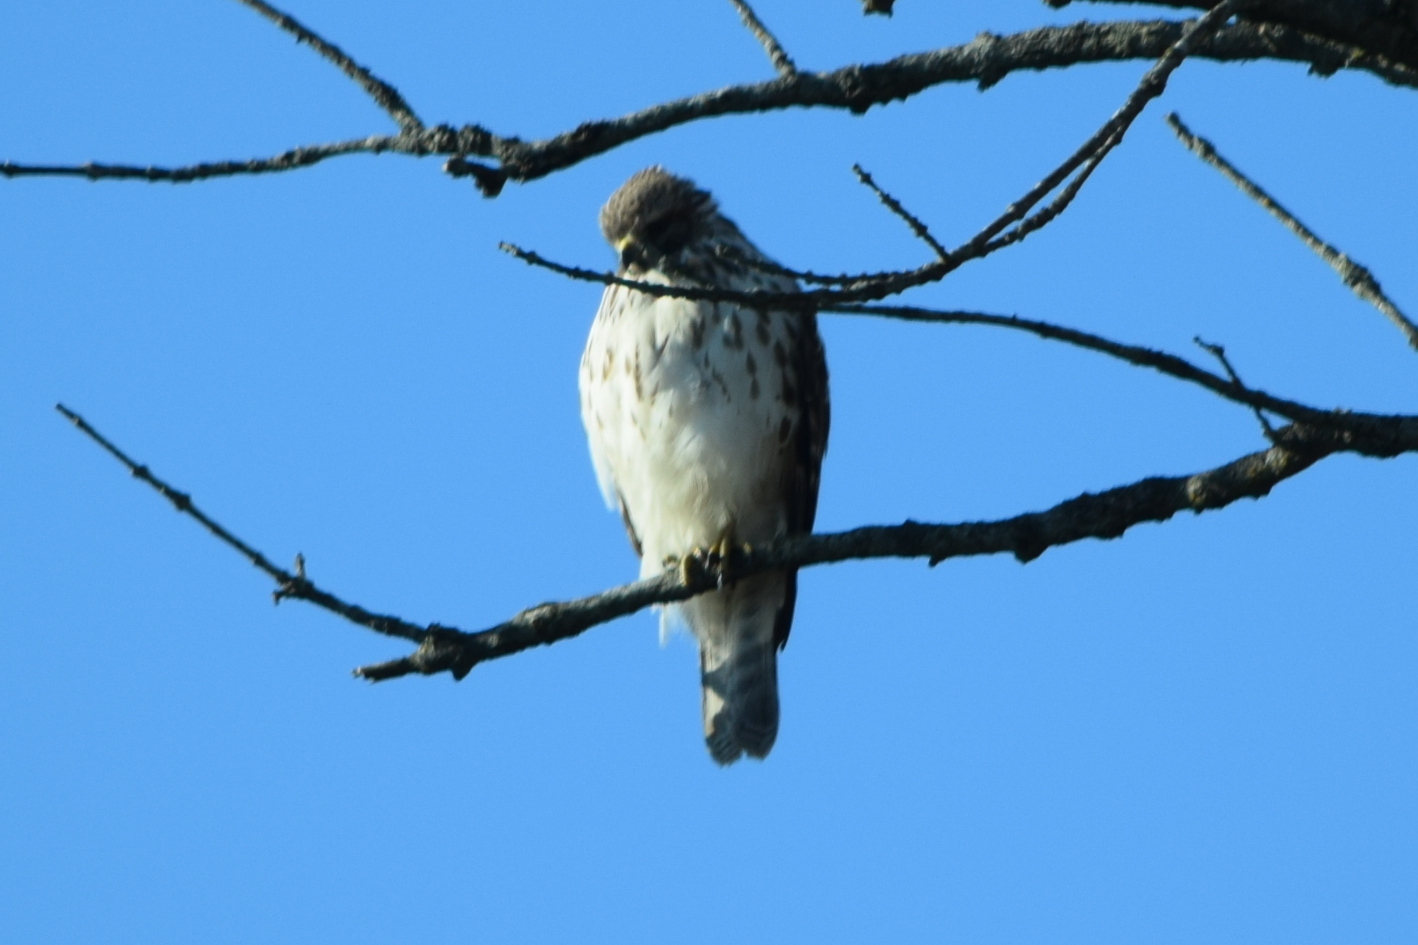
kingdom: Animalia
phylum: Chordata
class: Aves
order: Accipitriformes
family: Accipitridae
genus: Buteo
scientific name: Buteo jamaicensis
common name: Red-tailed hawk
